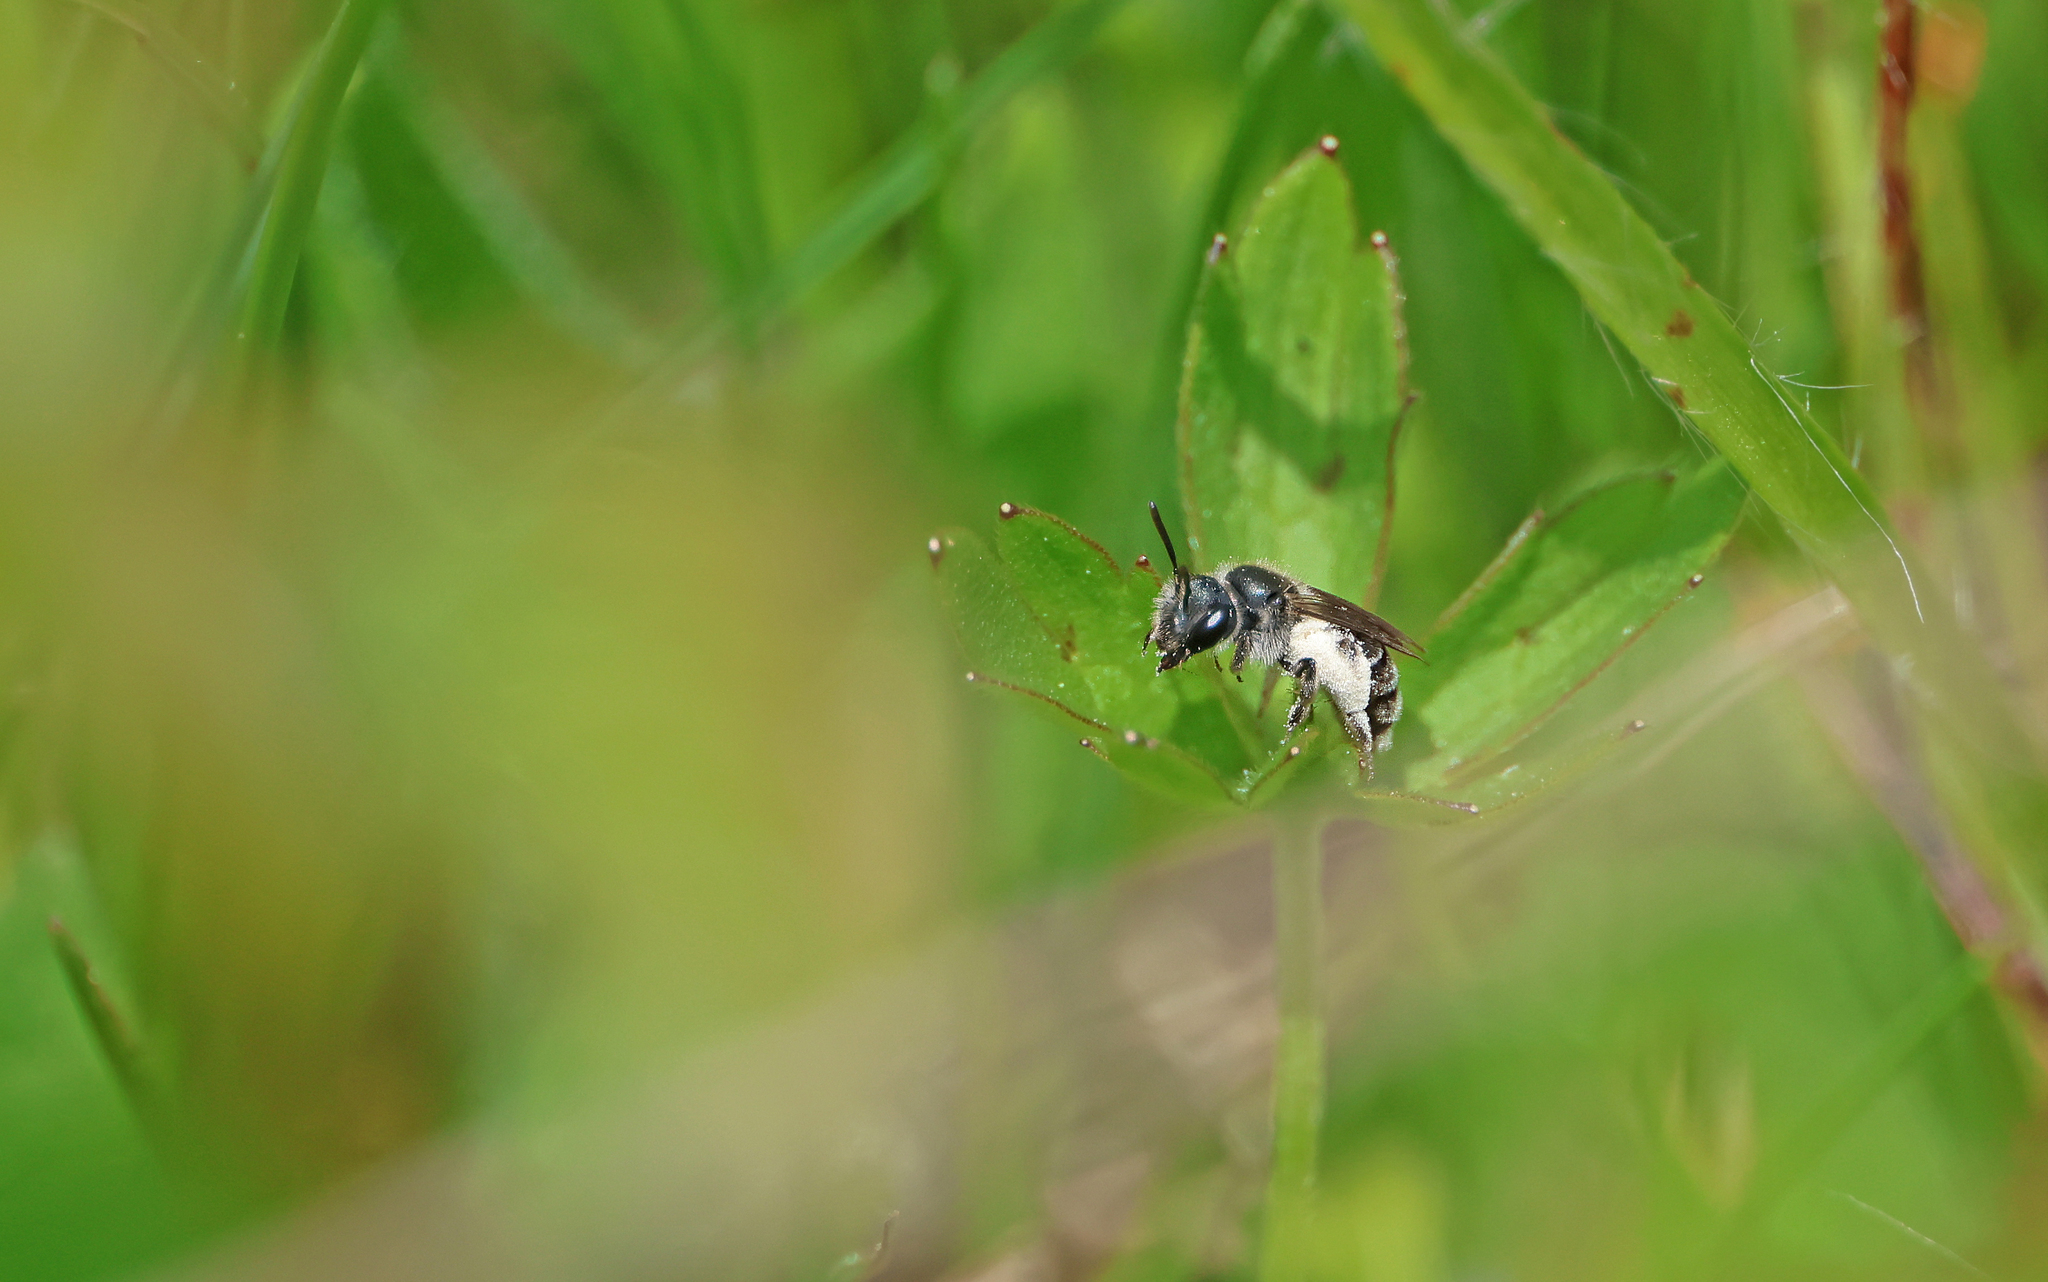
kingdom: Animalia
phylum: Arthropoda
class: Insecta
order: Hymenoptera
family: Andrenidae
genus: Andrena
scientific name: Andrena viridescens
